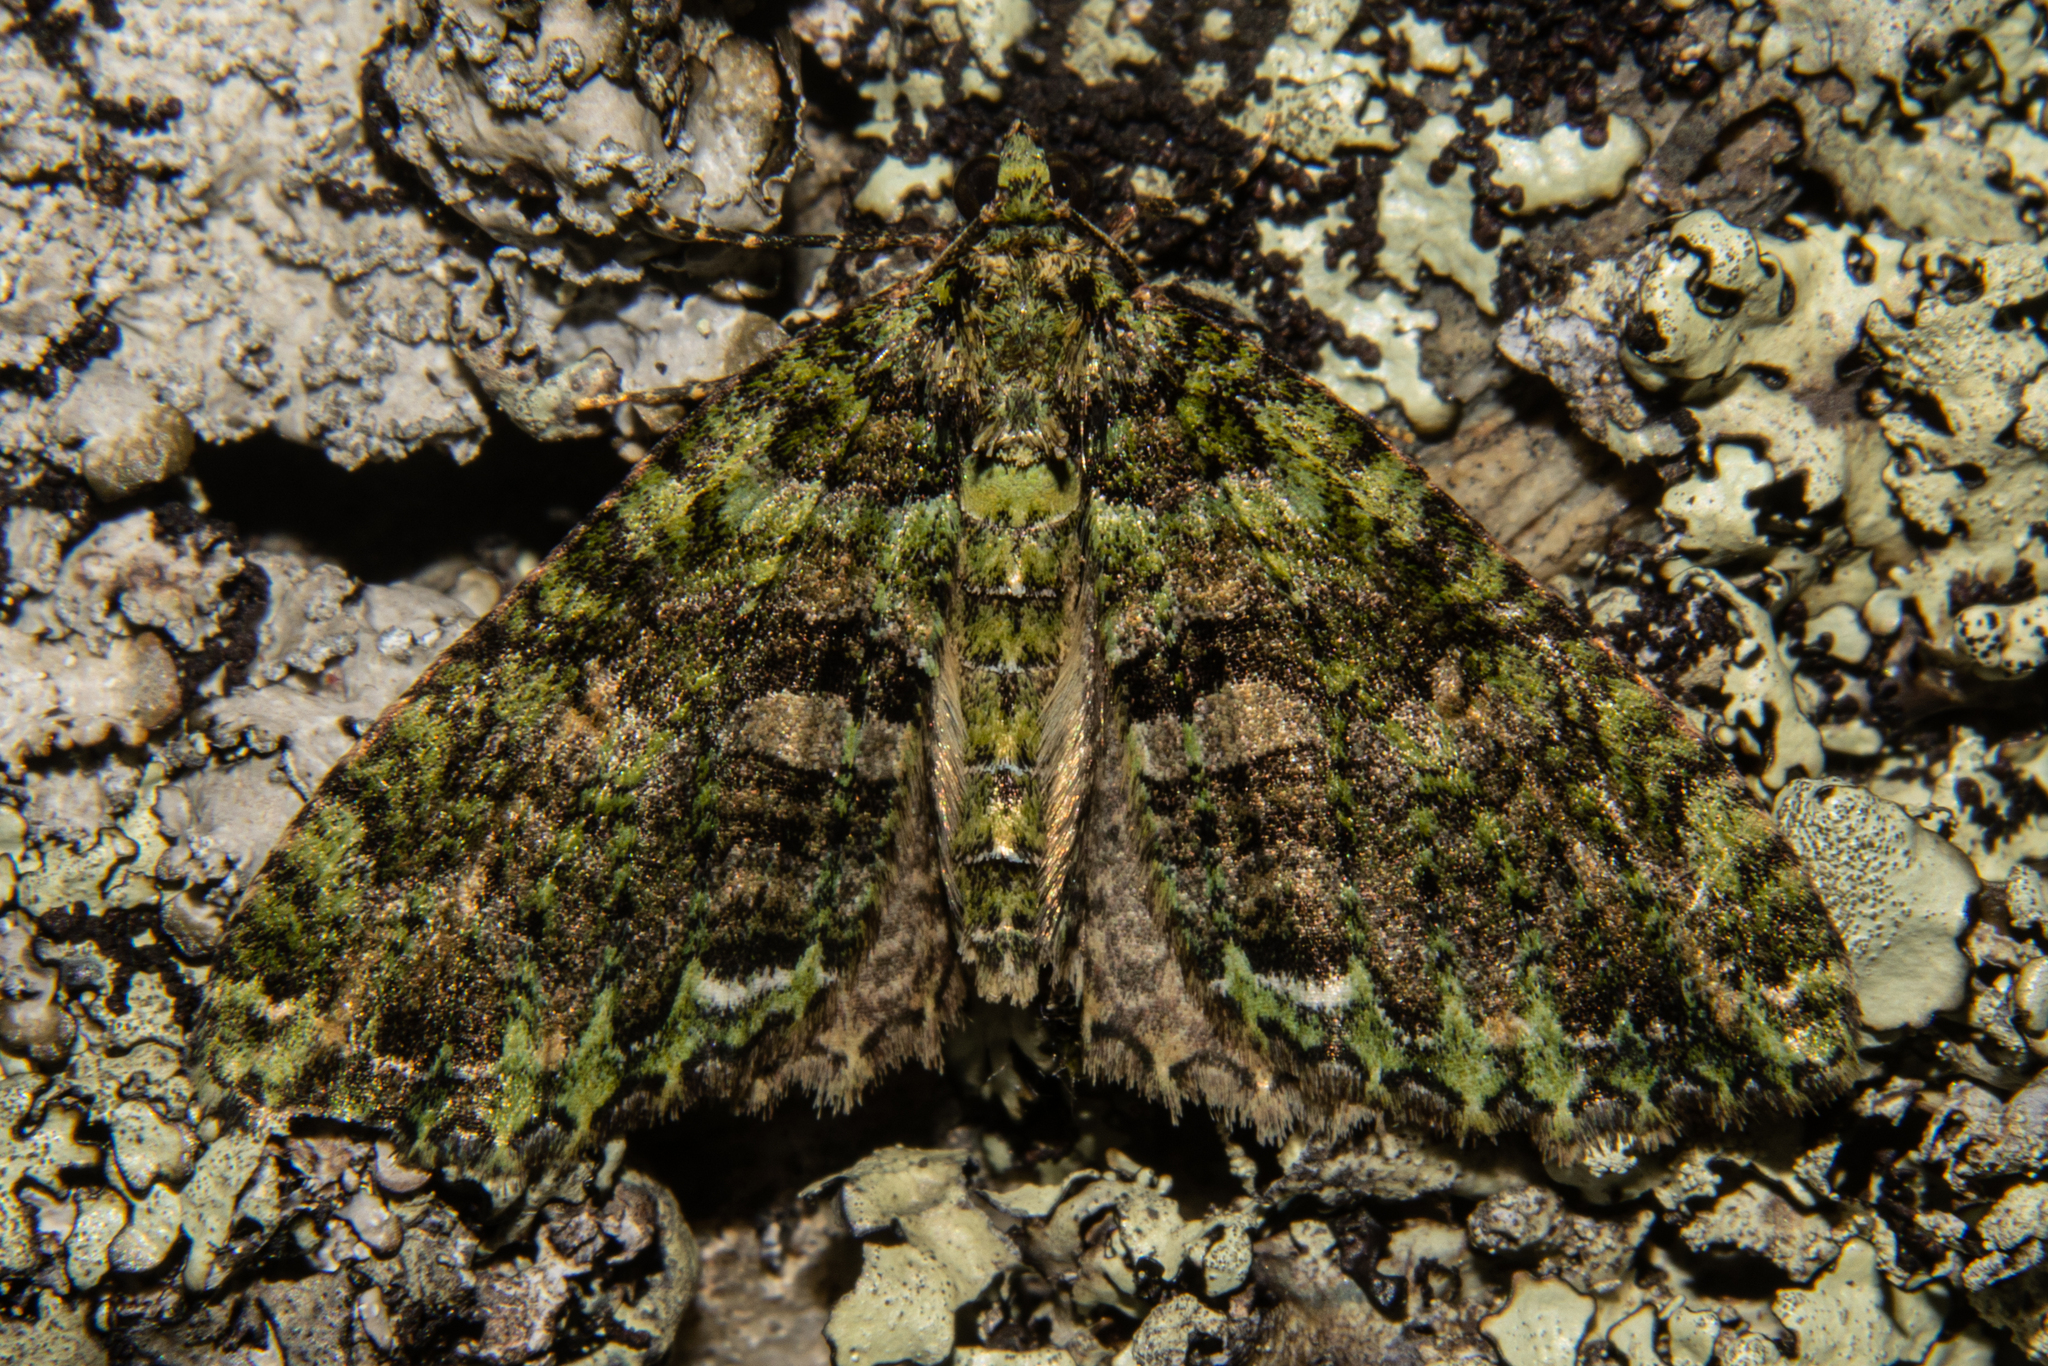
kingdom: Animalia
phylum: Arthropoda
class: Insecta
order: Lepidoptera
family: Geometridae
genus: Austrocidaria
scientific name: Austrocidaria similata
